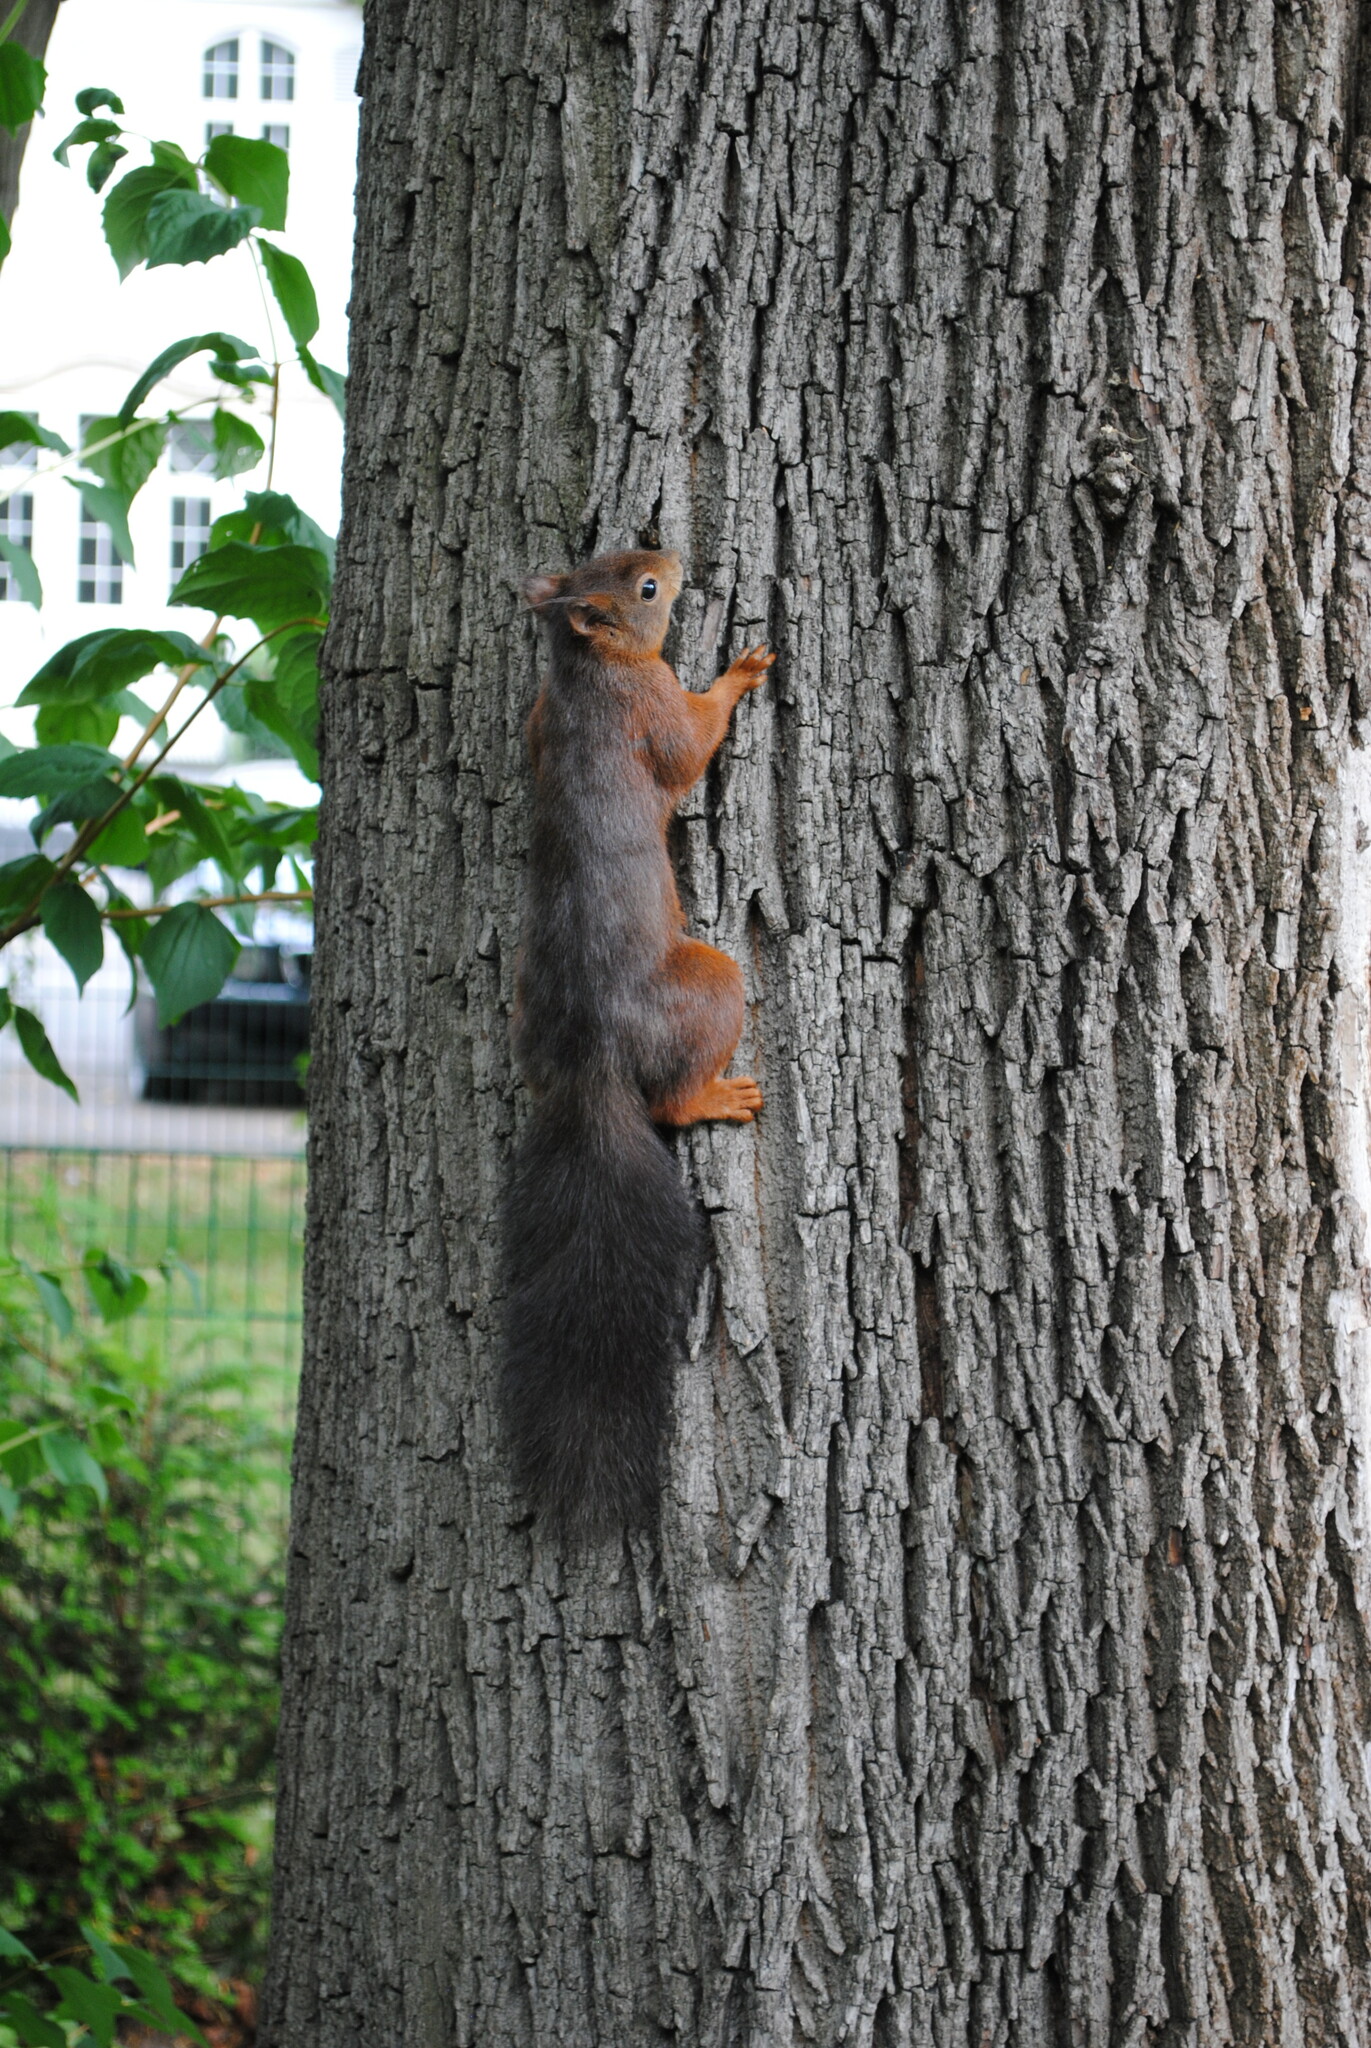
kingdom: Animalia
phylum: Chordata
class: Mammalia
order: Rodentia
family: Sciuridae
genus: Sciurus
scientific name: Sciurus vulgaris
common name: Eurasian red squirrel
